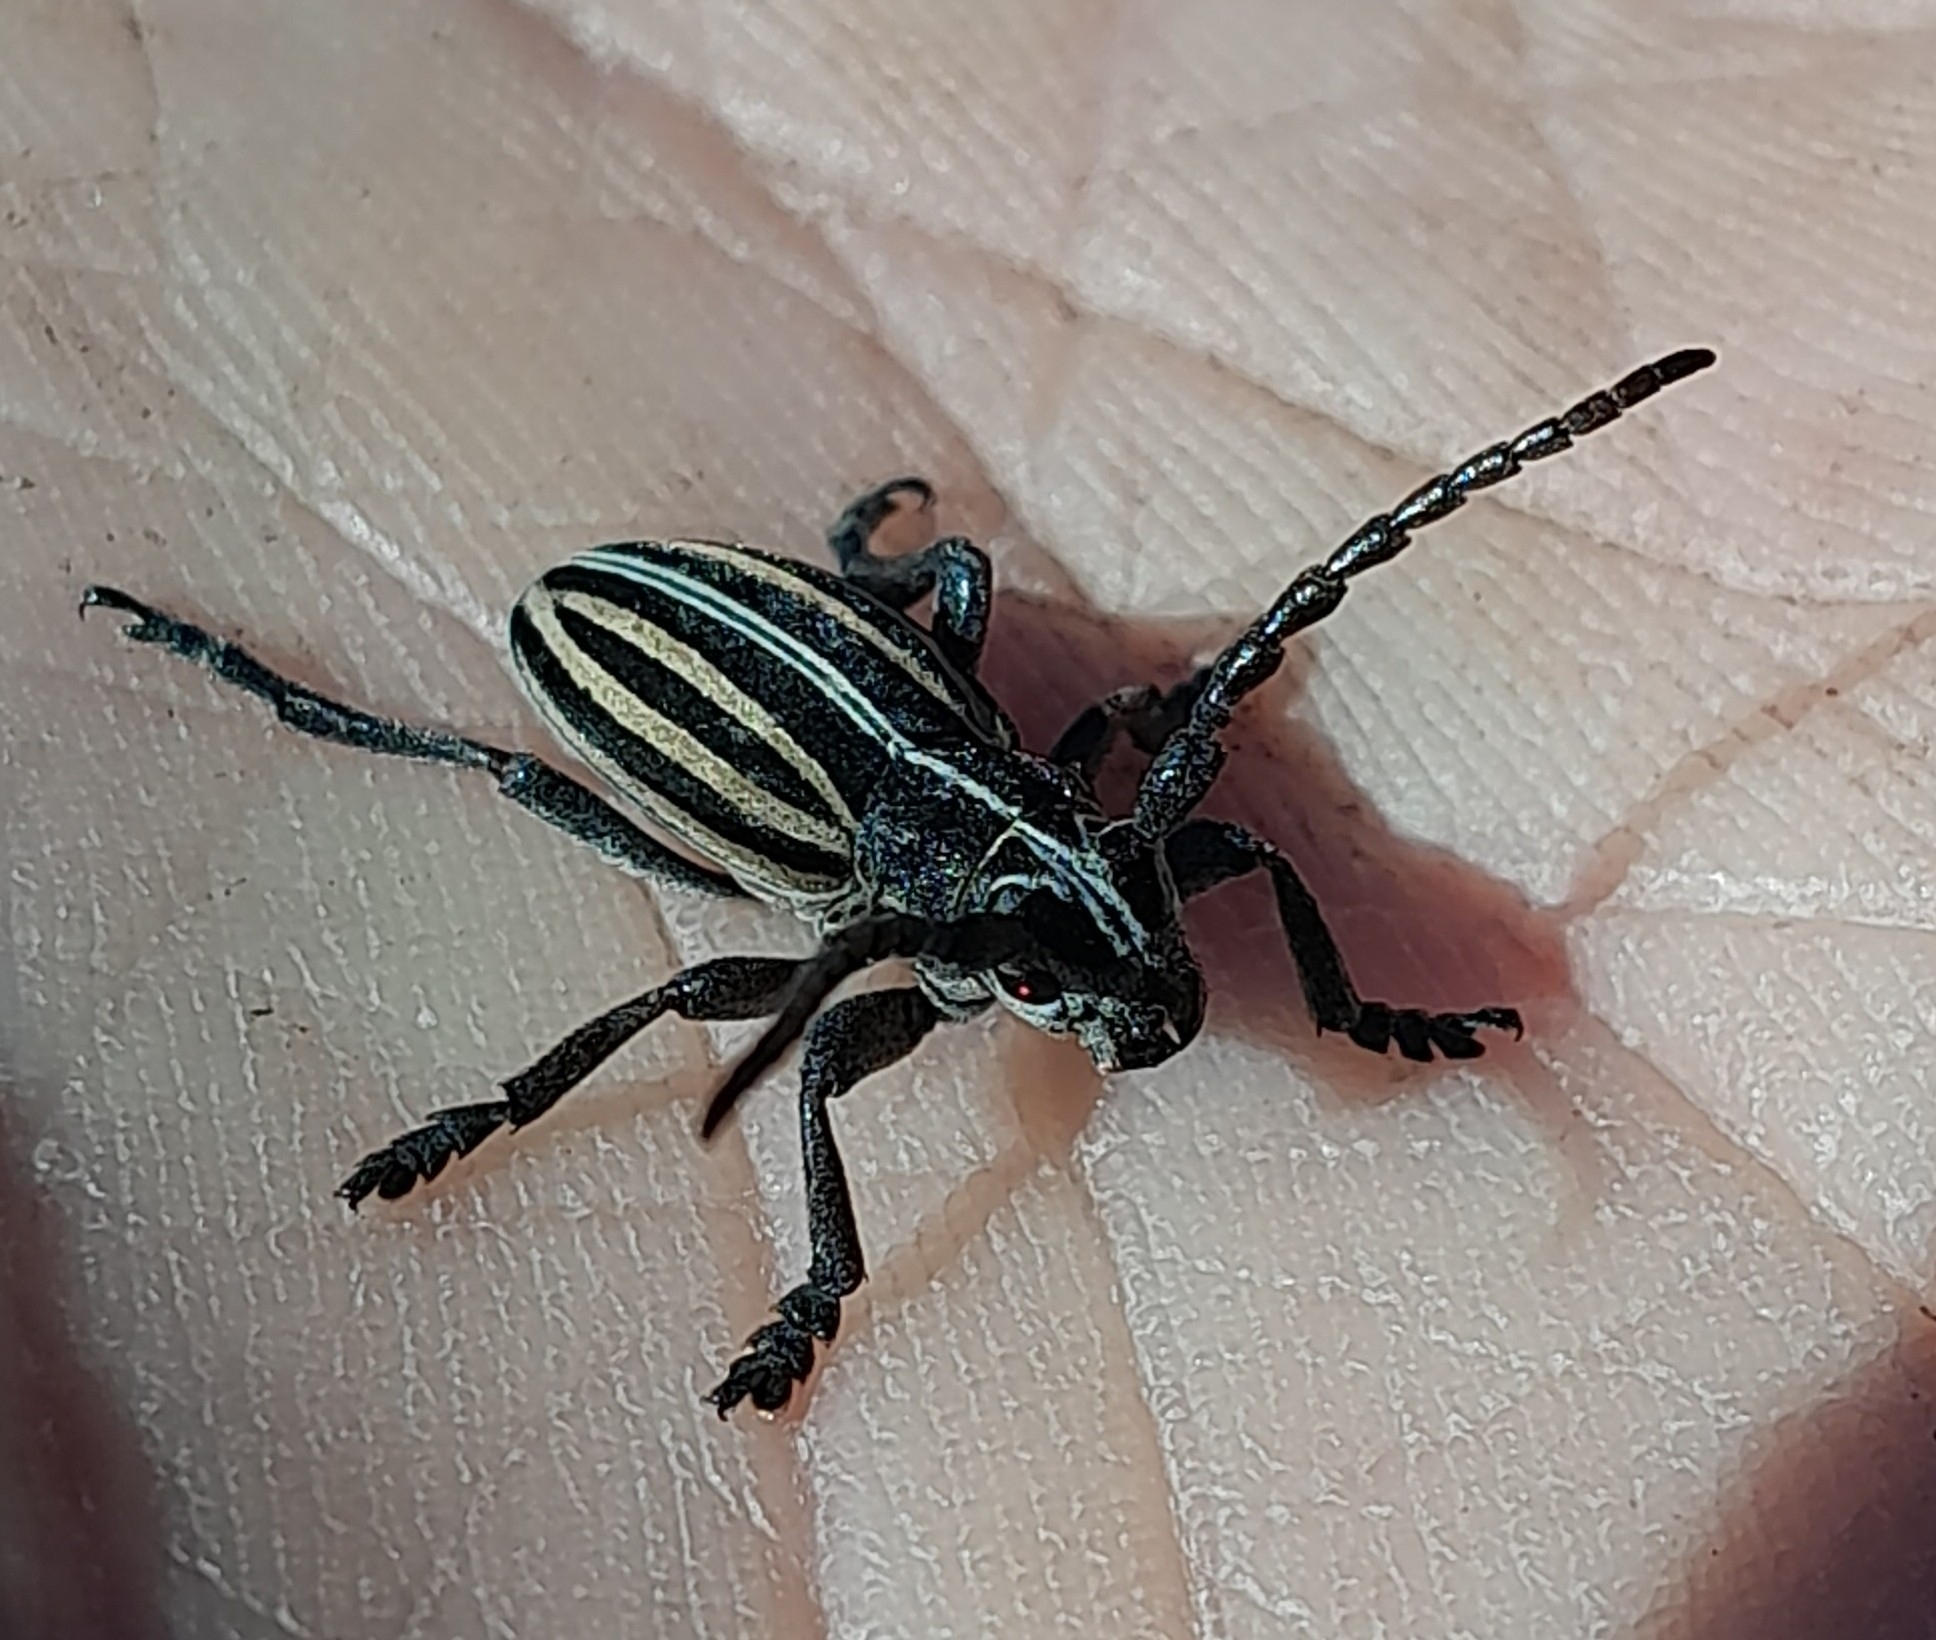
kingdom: Animalia
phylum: Arthropoda
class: Insecta
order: Coleoptera
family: Cerambycidae
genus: Dorcadion
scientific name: Dorcadion scopolii
